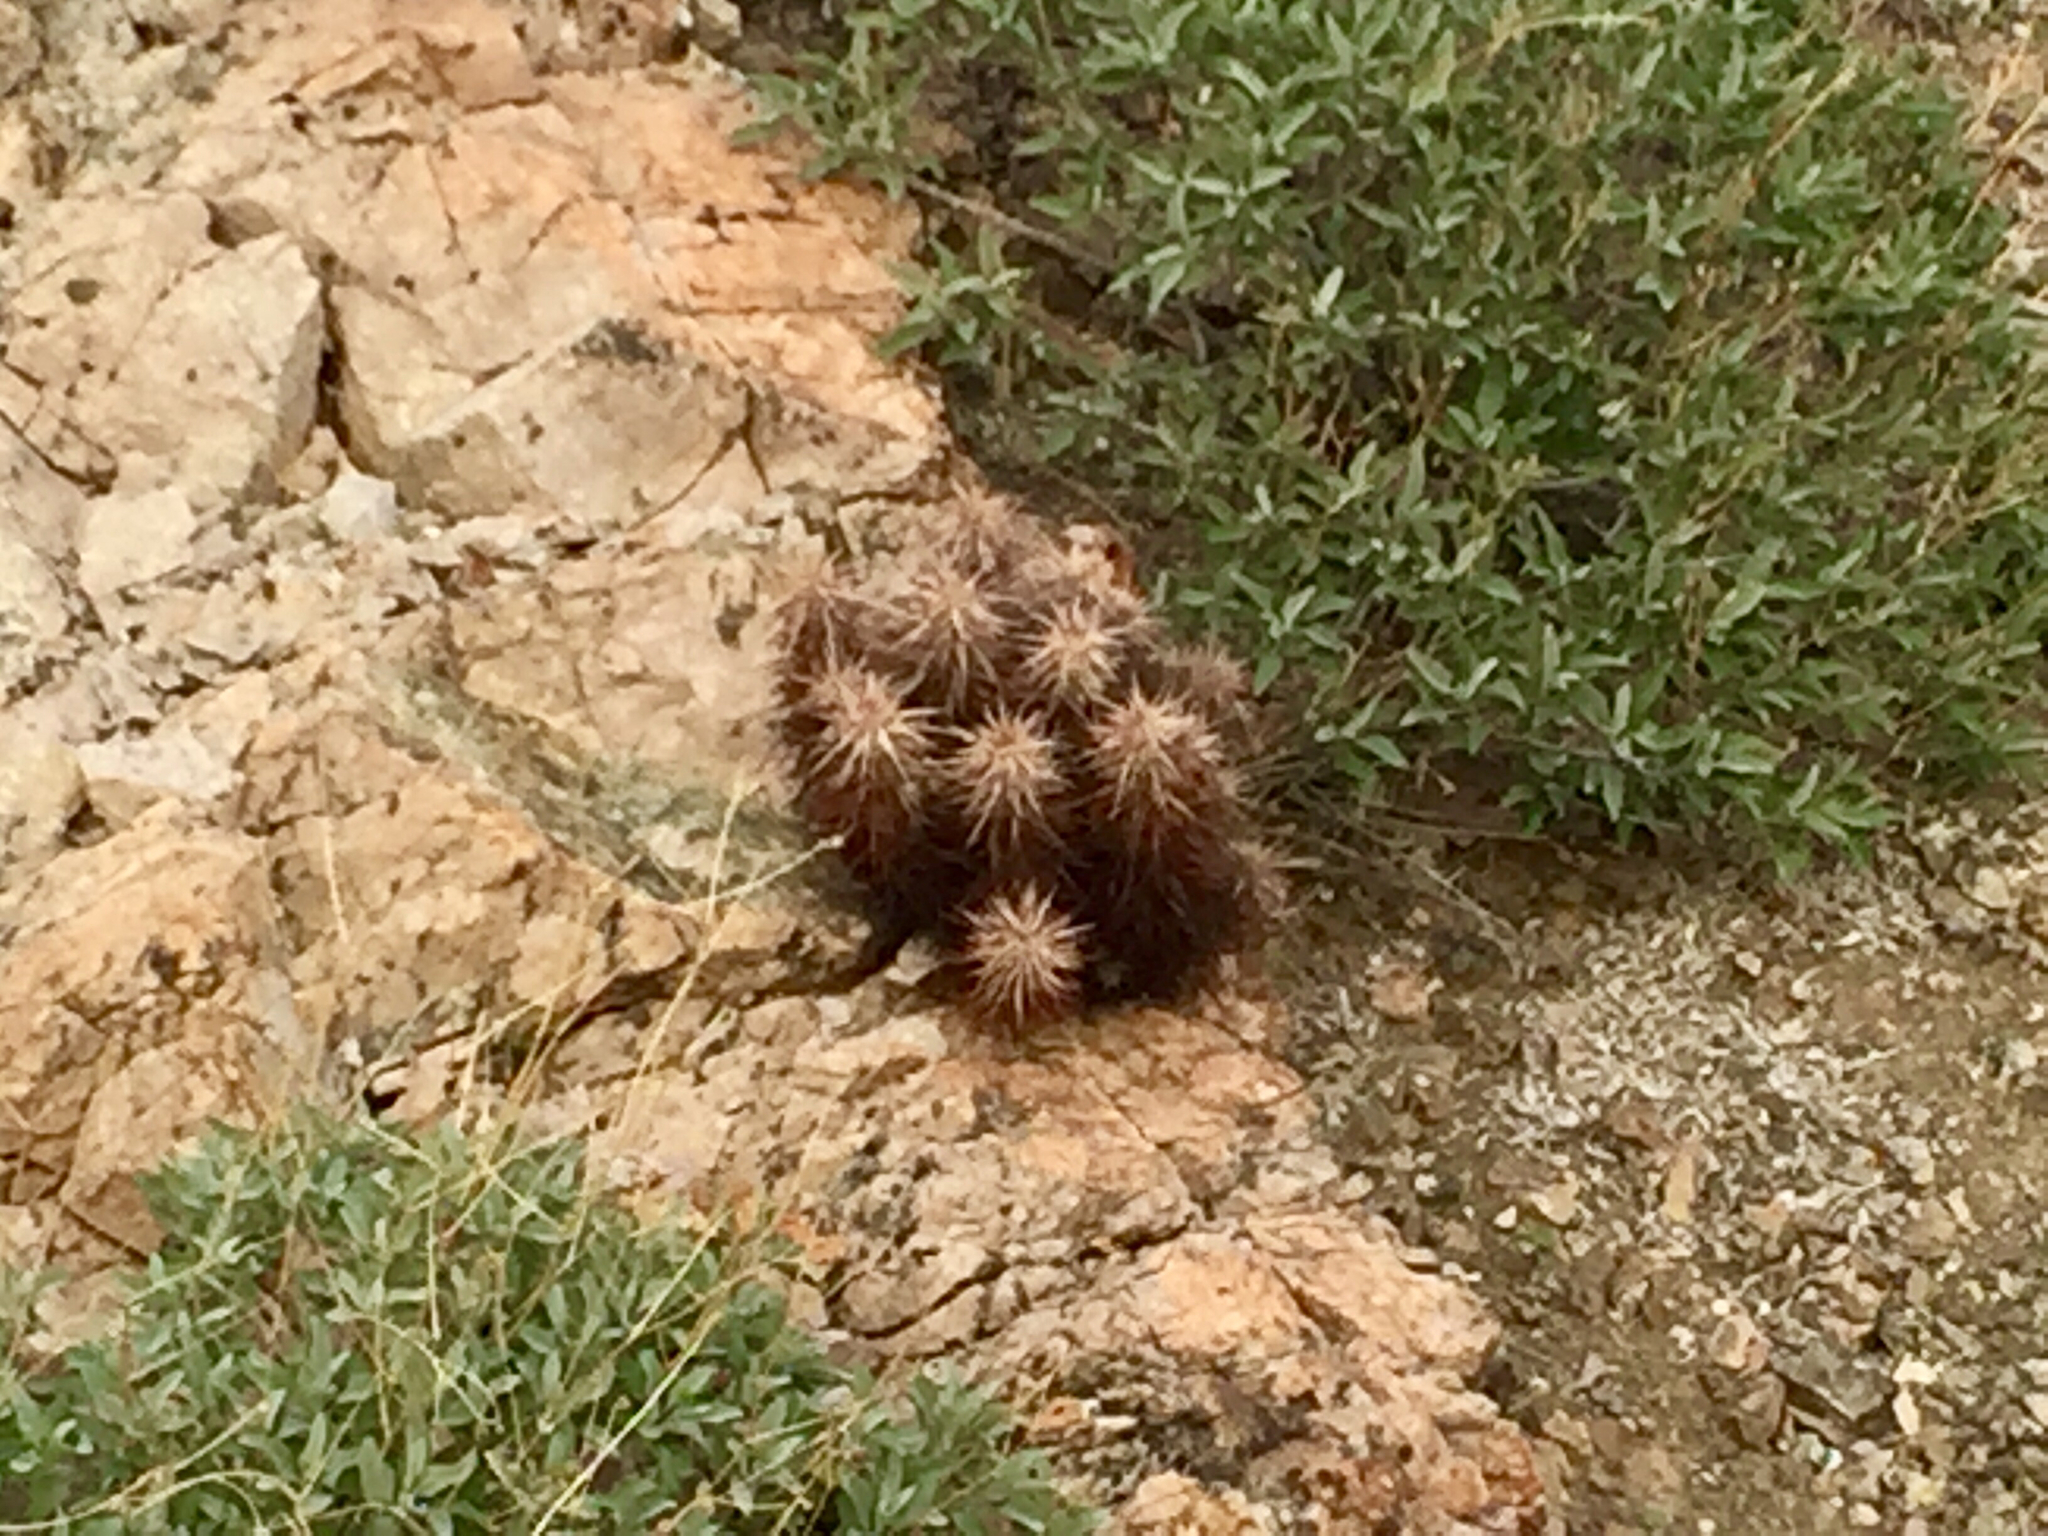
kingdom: Plantae
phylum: Tracheophyta
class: Magnoliopsida
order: Caryophyllales
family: Cactaceae
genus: Echinocereus
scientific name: Echinocereus engelmannii
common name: Engelmann's hedgehog cactus
